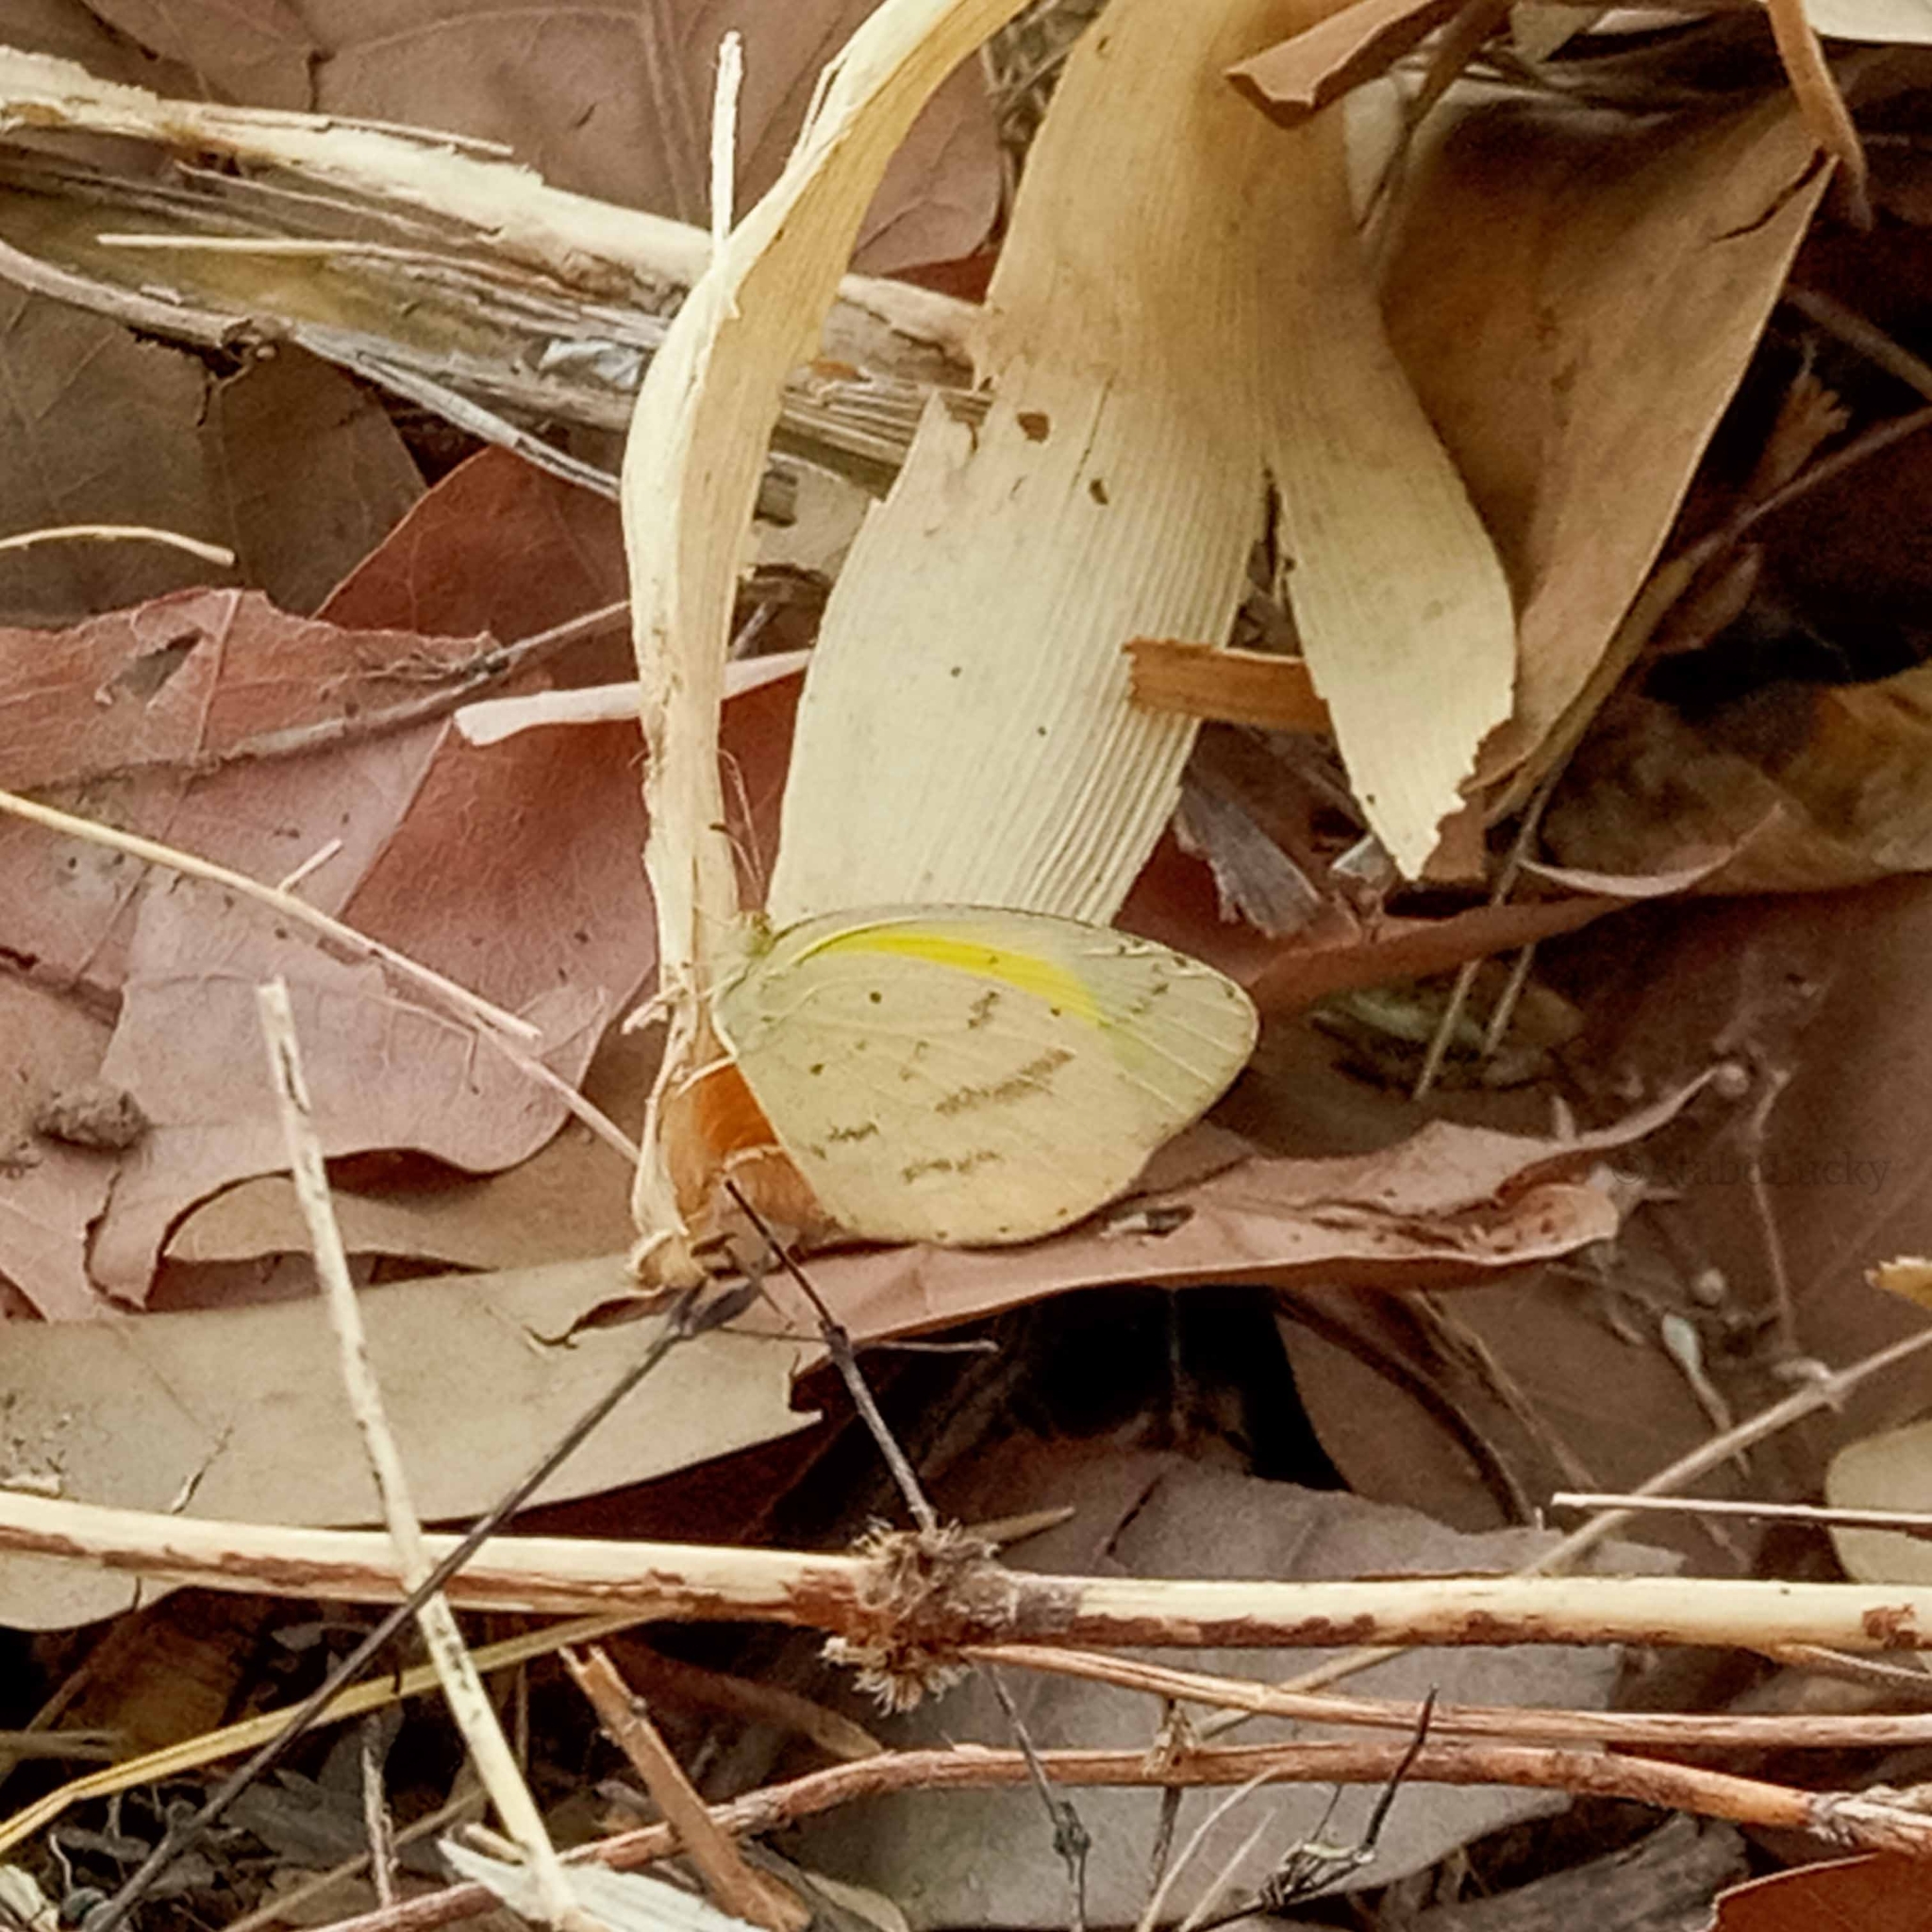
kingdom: Animalia
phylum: Arthropoda
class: Insecta
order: Lepidoptera
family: Pieridae
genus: Eurema
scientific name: Eurema brigitta
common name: Small grass yellow
